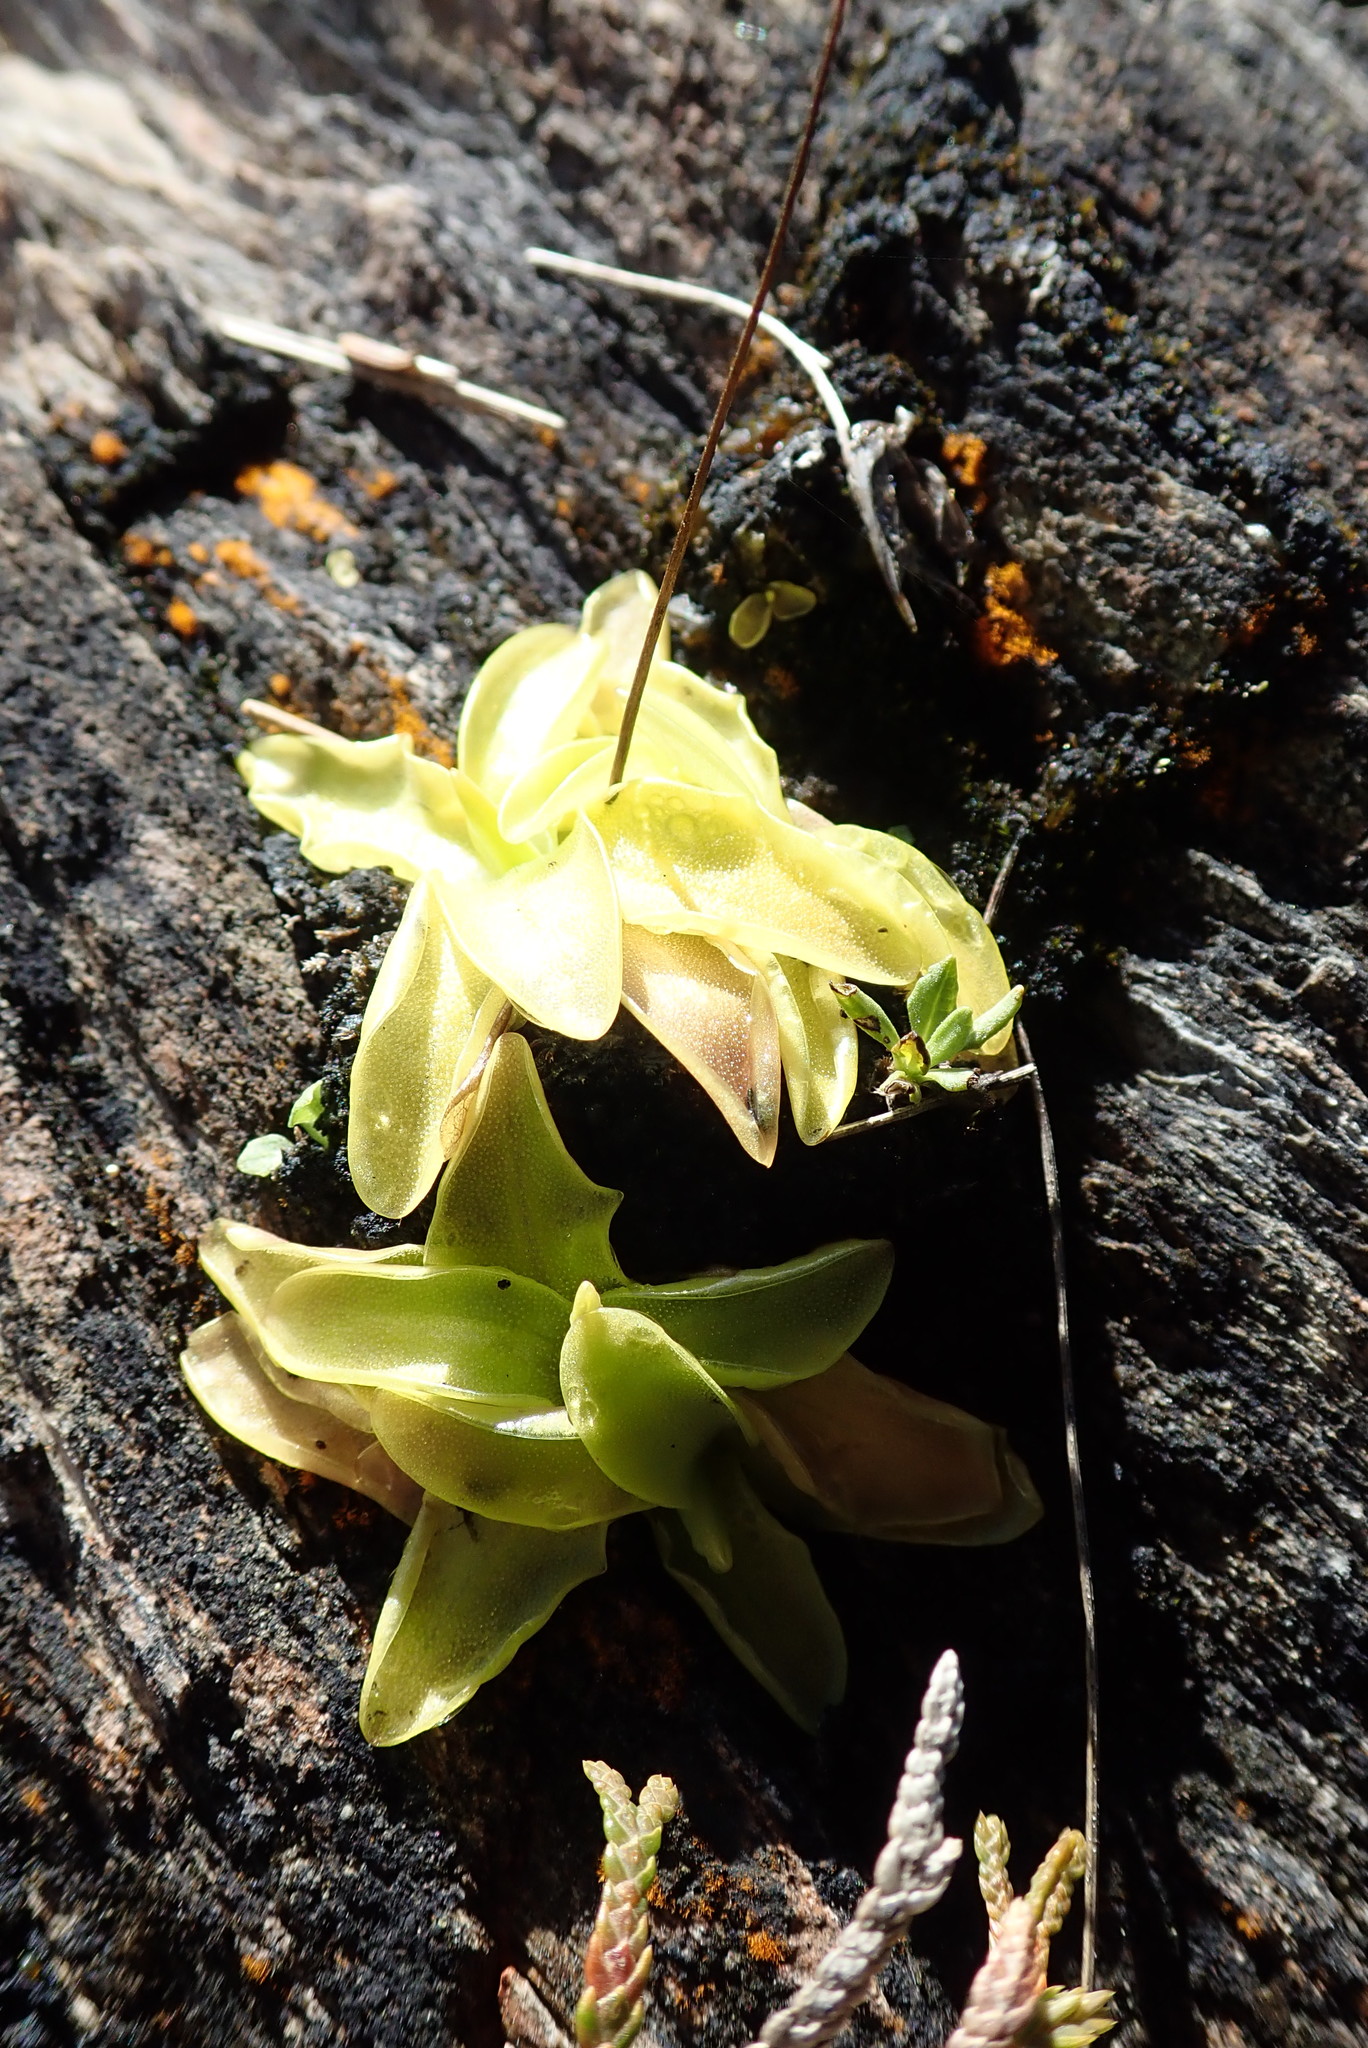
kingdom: Plantae
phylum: Tracheophyta
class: Magnoliopsida
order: Lamiales
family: Lentibulariaceae
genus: Pinguicula
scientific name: Pinguicula vulgaris
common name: Common butterwort
